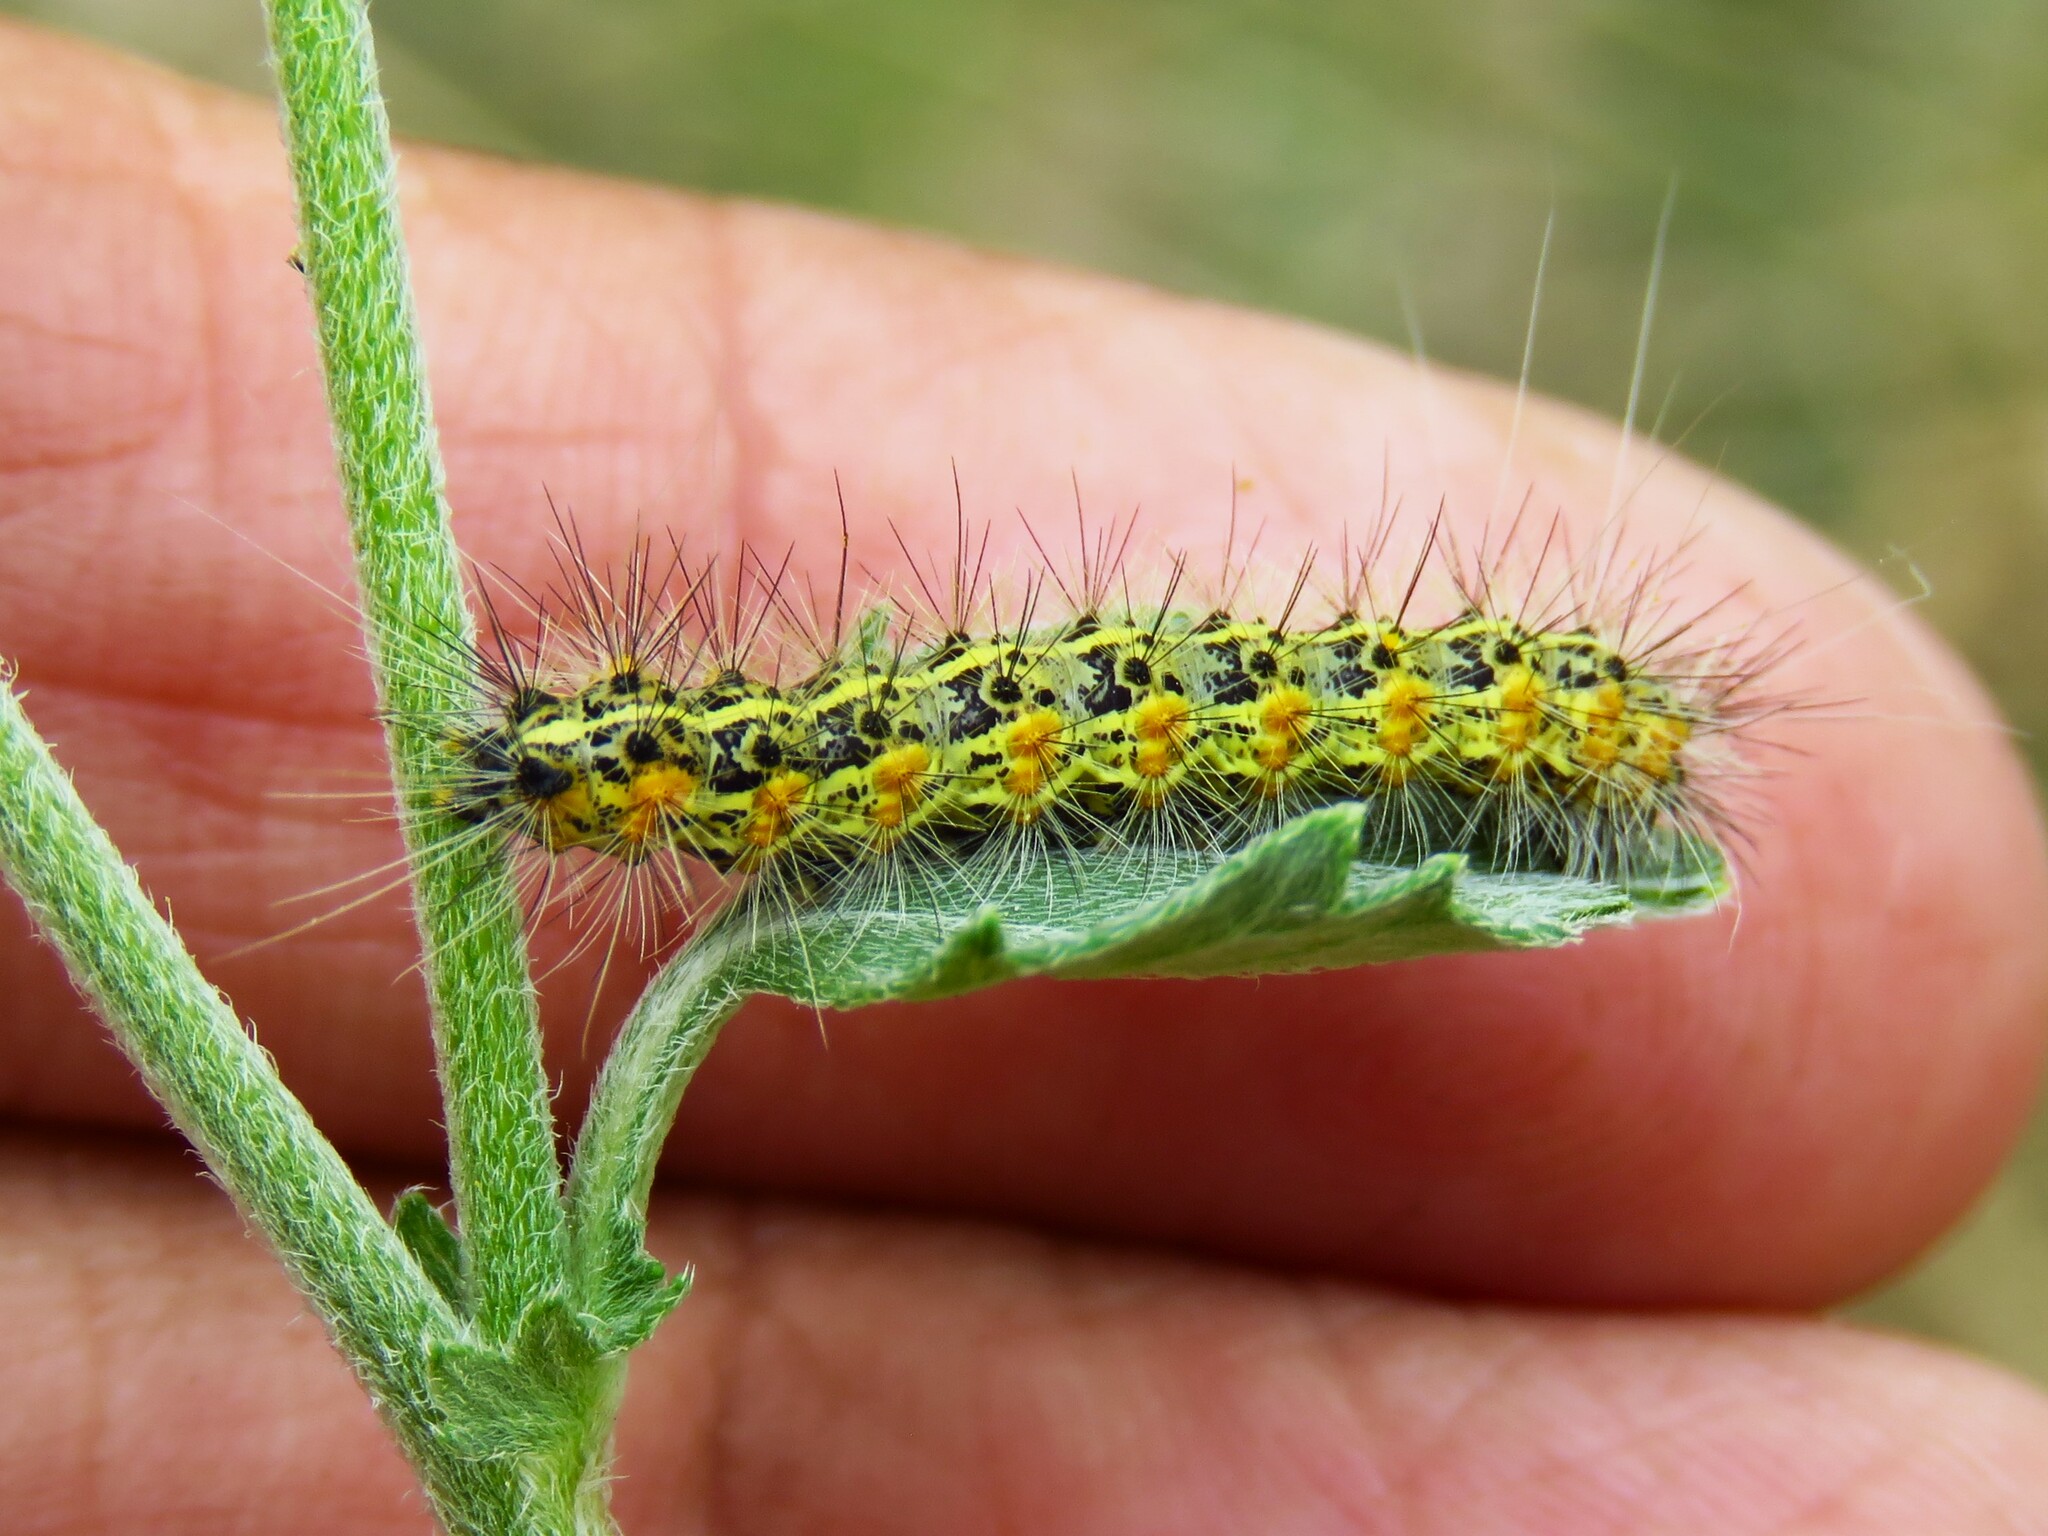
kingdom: Animalia
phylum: Arthropoda
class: Insecta
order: Lepidoptera
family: Erebidae
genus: Estigmene
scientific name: Estigmene acrea
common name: Salt marsh moth
